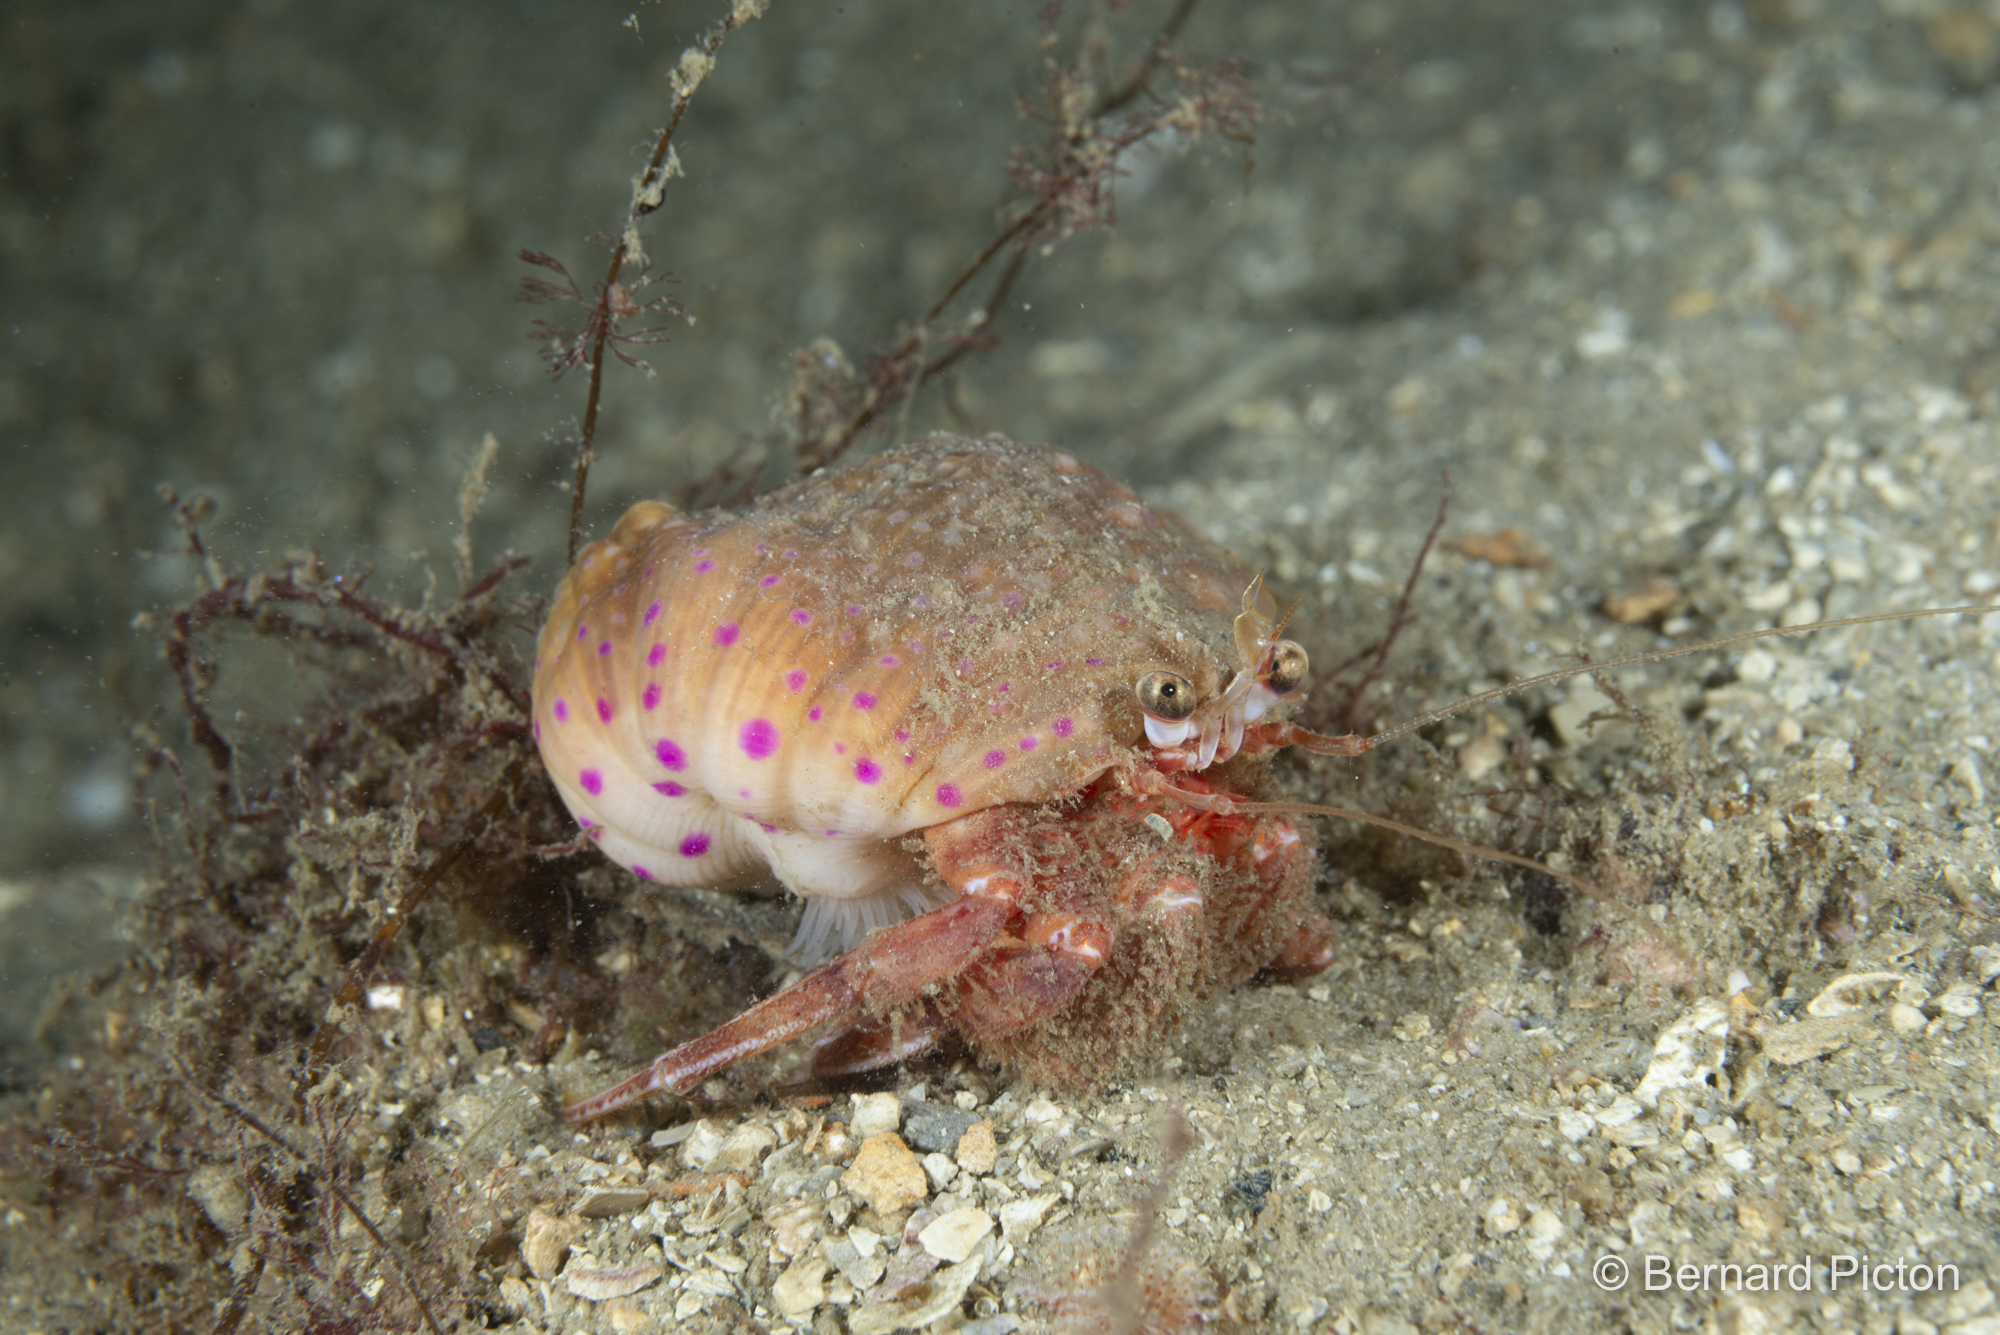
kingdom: Animalia
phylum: Cnidaria
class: Anthozoa
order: Actiniaria
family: Hormathiidae
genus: Calliactis
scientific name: Calliactis palliata
